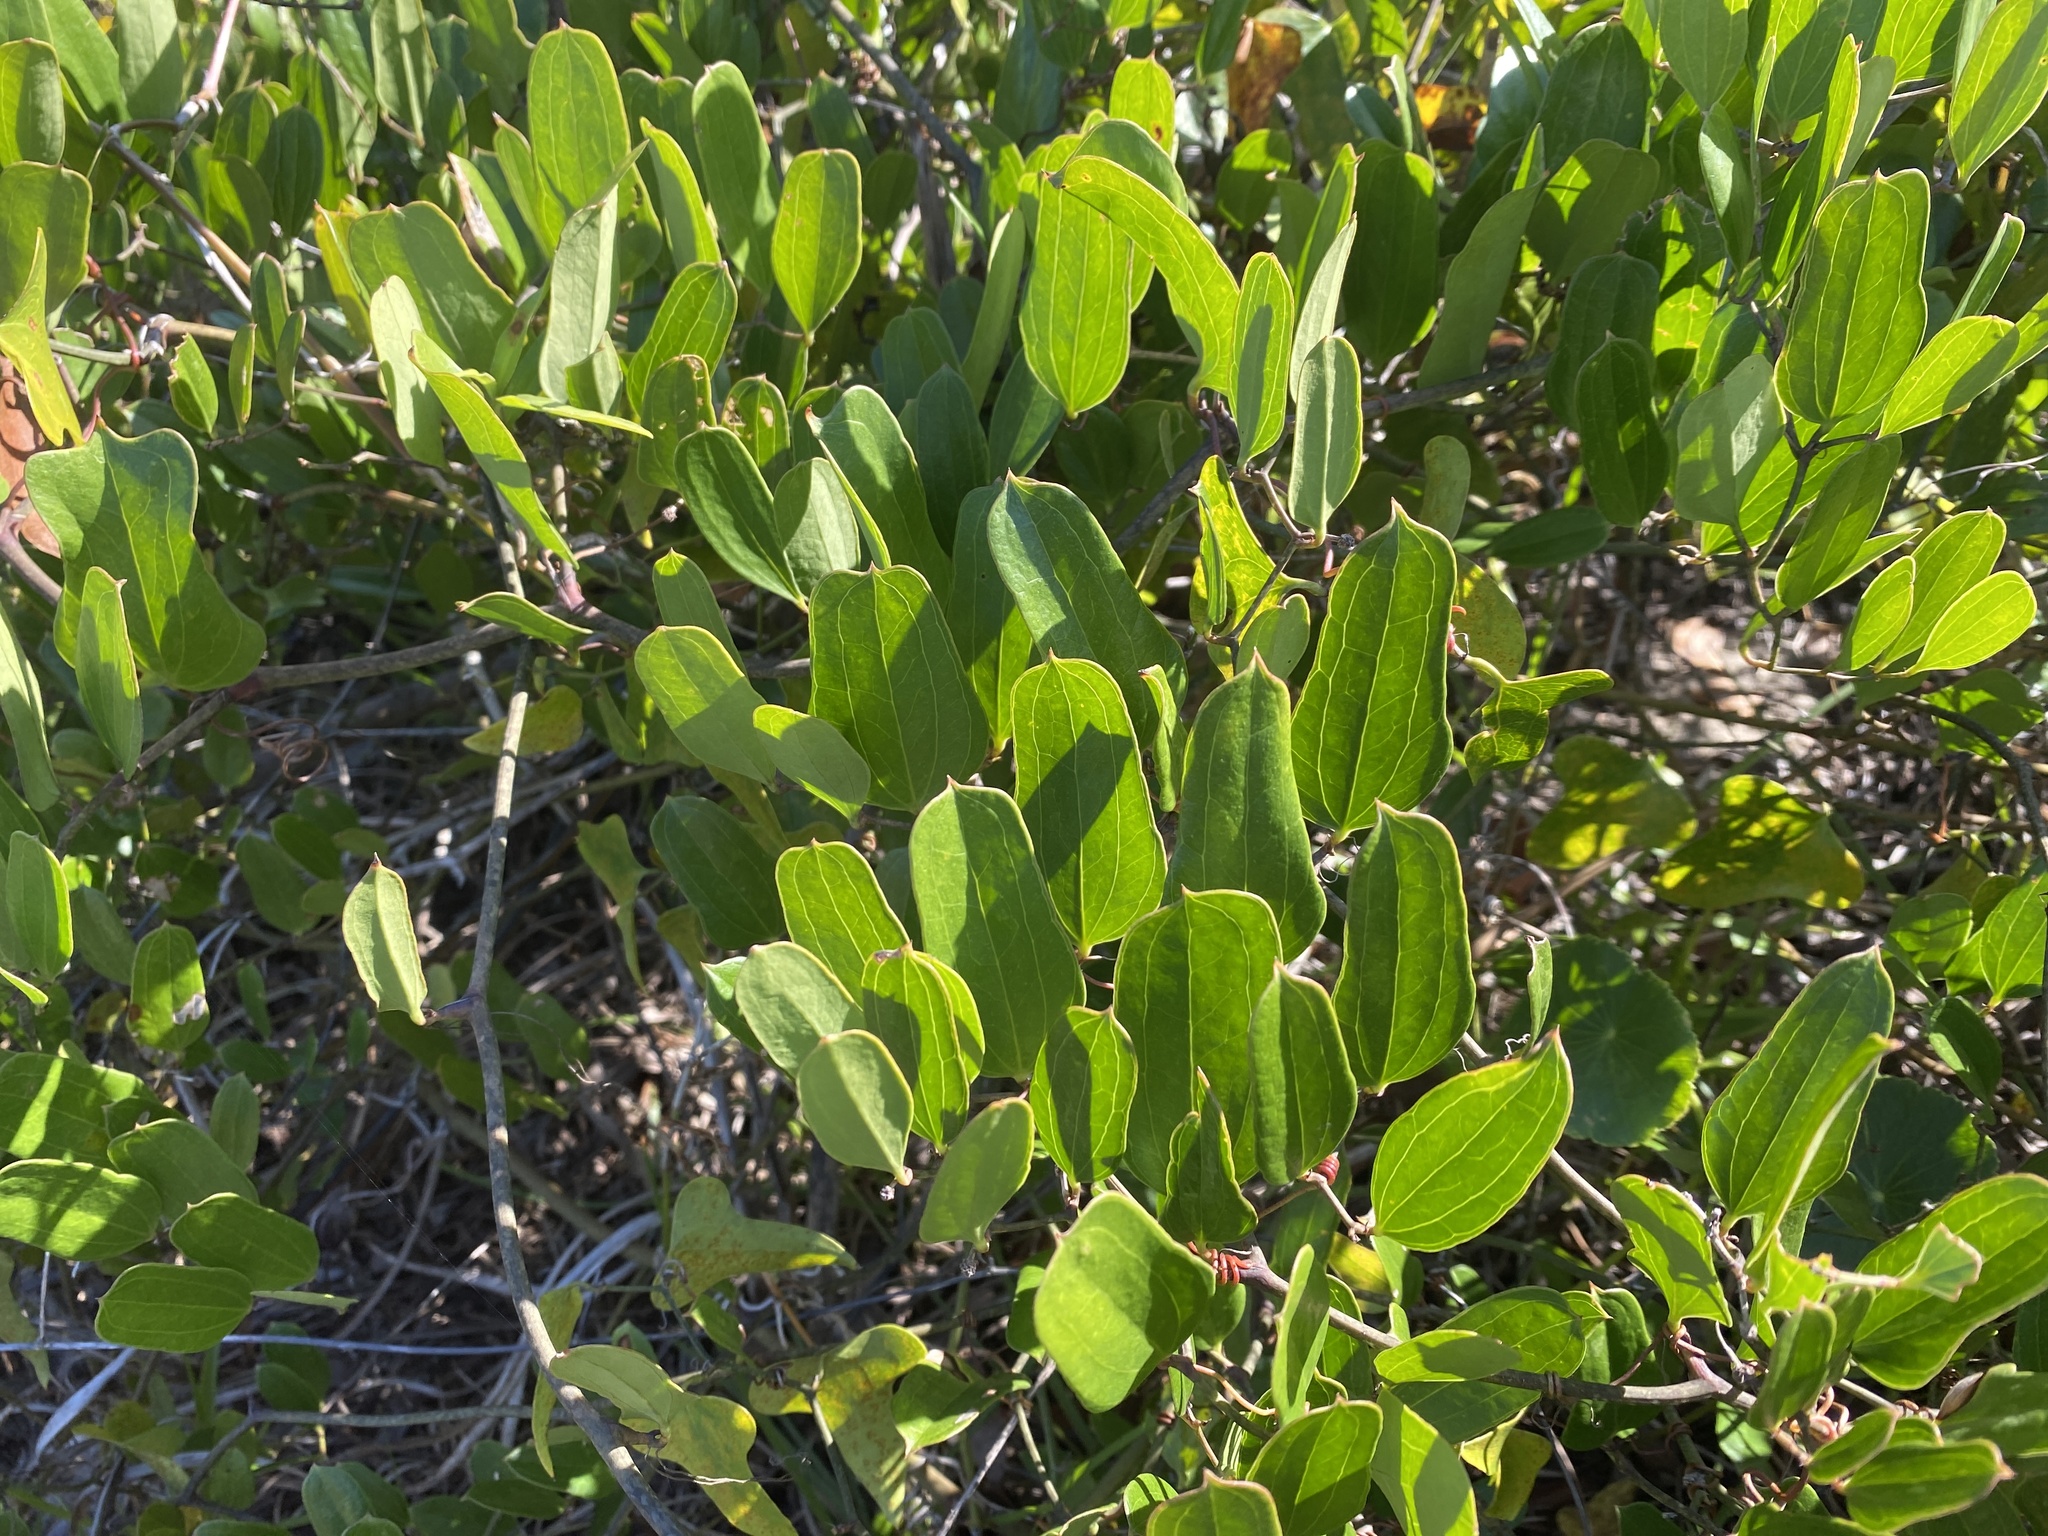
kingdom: Plantae
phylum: Tracheophyta
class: Liliopsida
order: Liliales
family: Smilacaceae
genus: Smilax
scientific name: Smilax auriculata
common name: Wild bamboo
